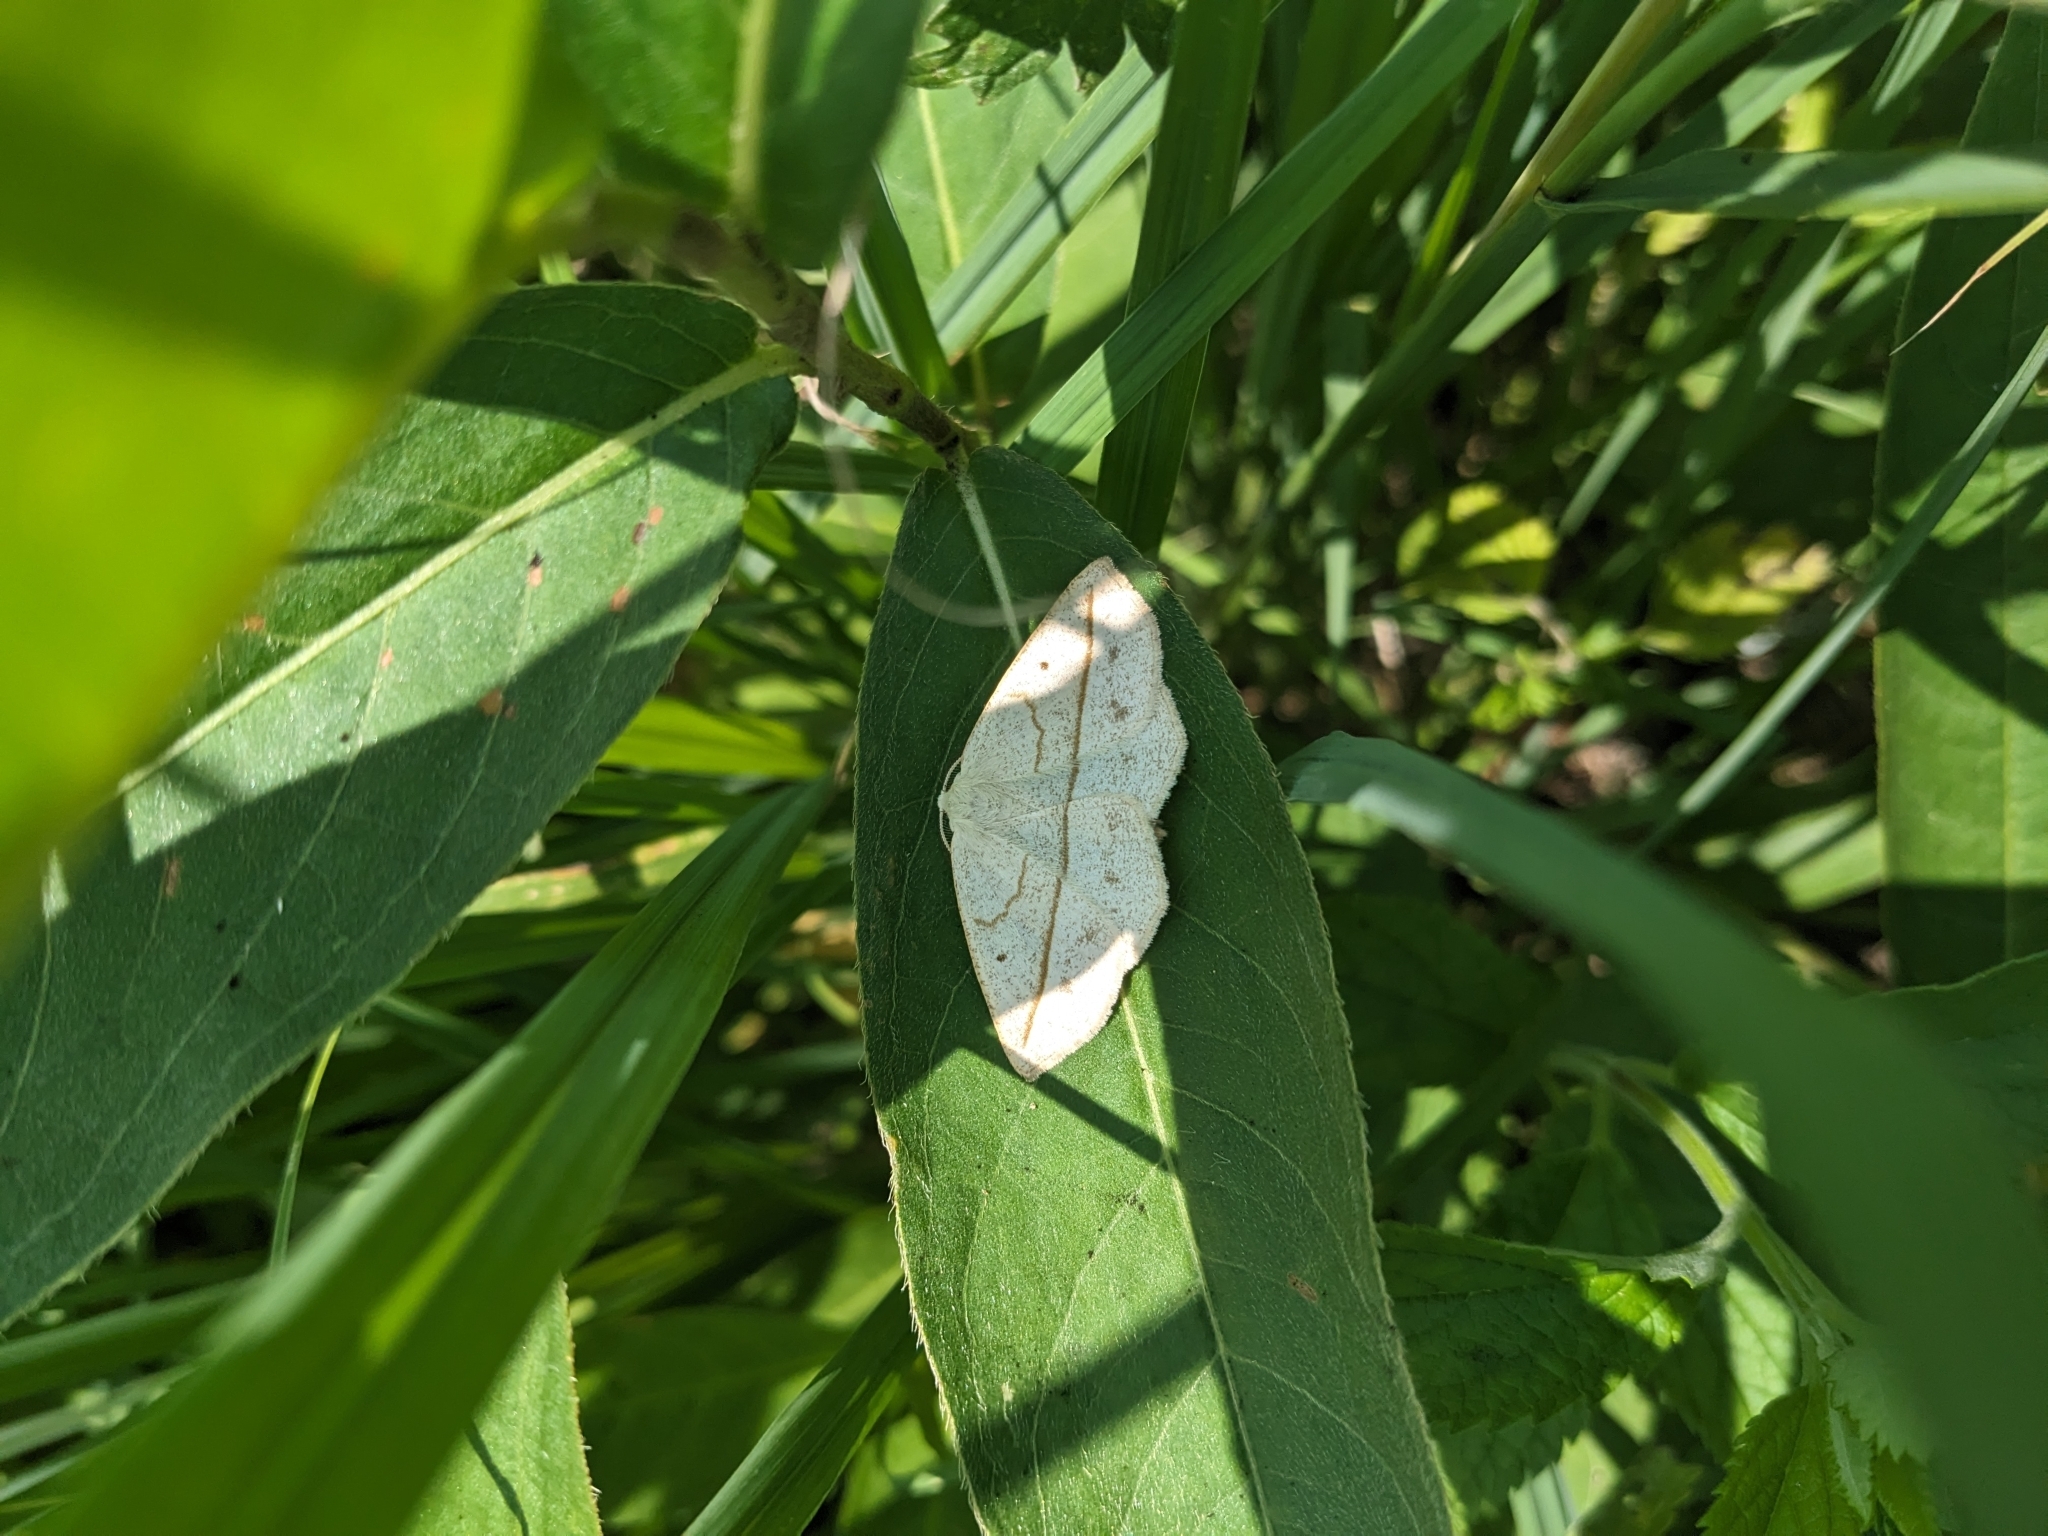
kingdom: Animalia
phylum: Arthropoda
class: Insecta
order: Lepidoptera
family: Geometridae
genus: Eusarca
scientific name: Eusarca confusaria
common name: Confused eusarca
